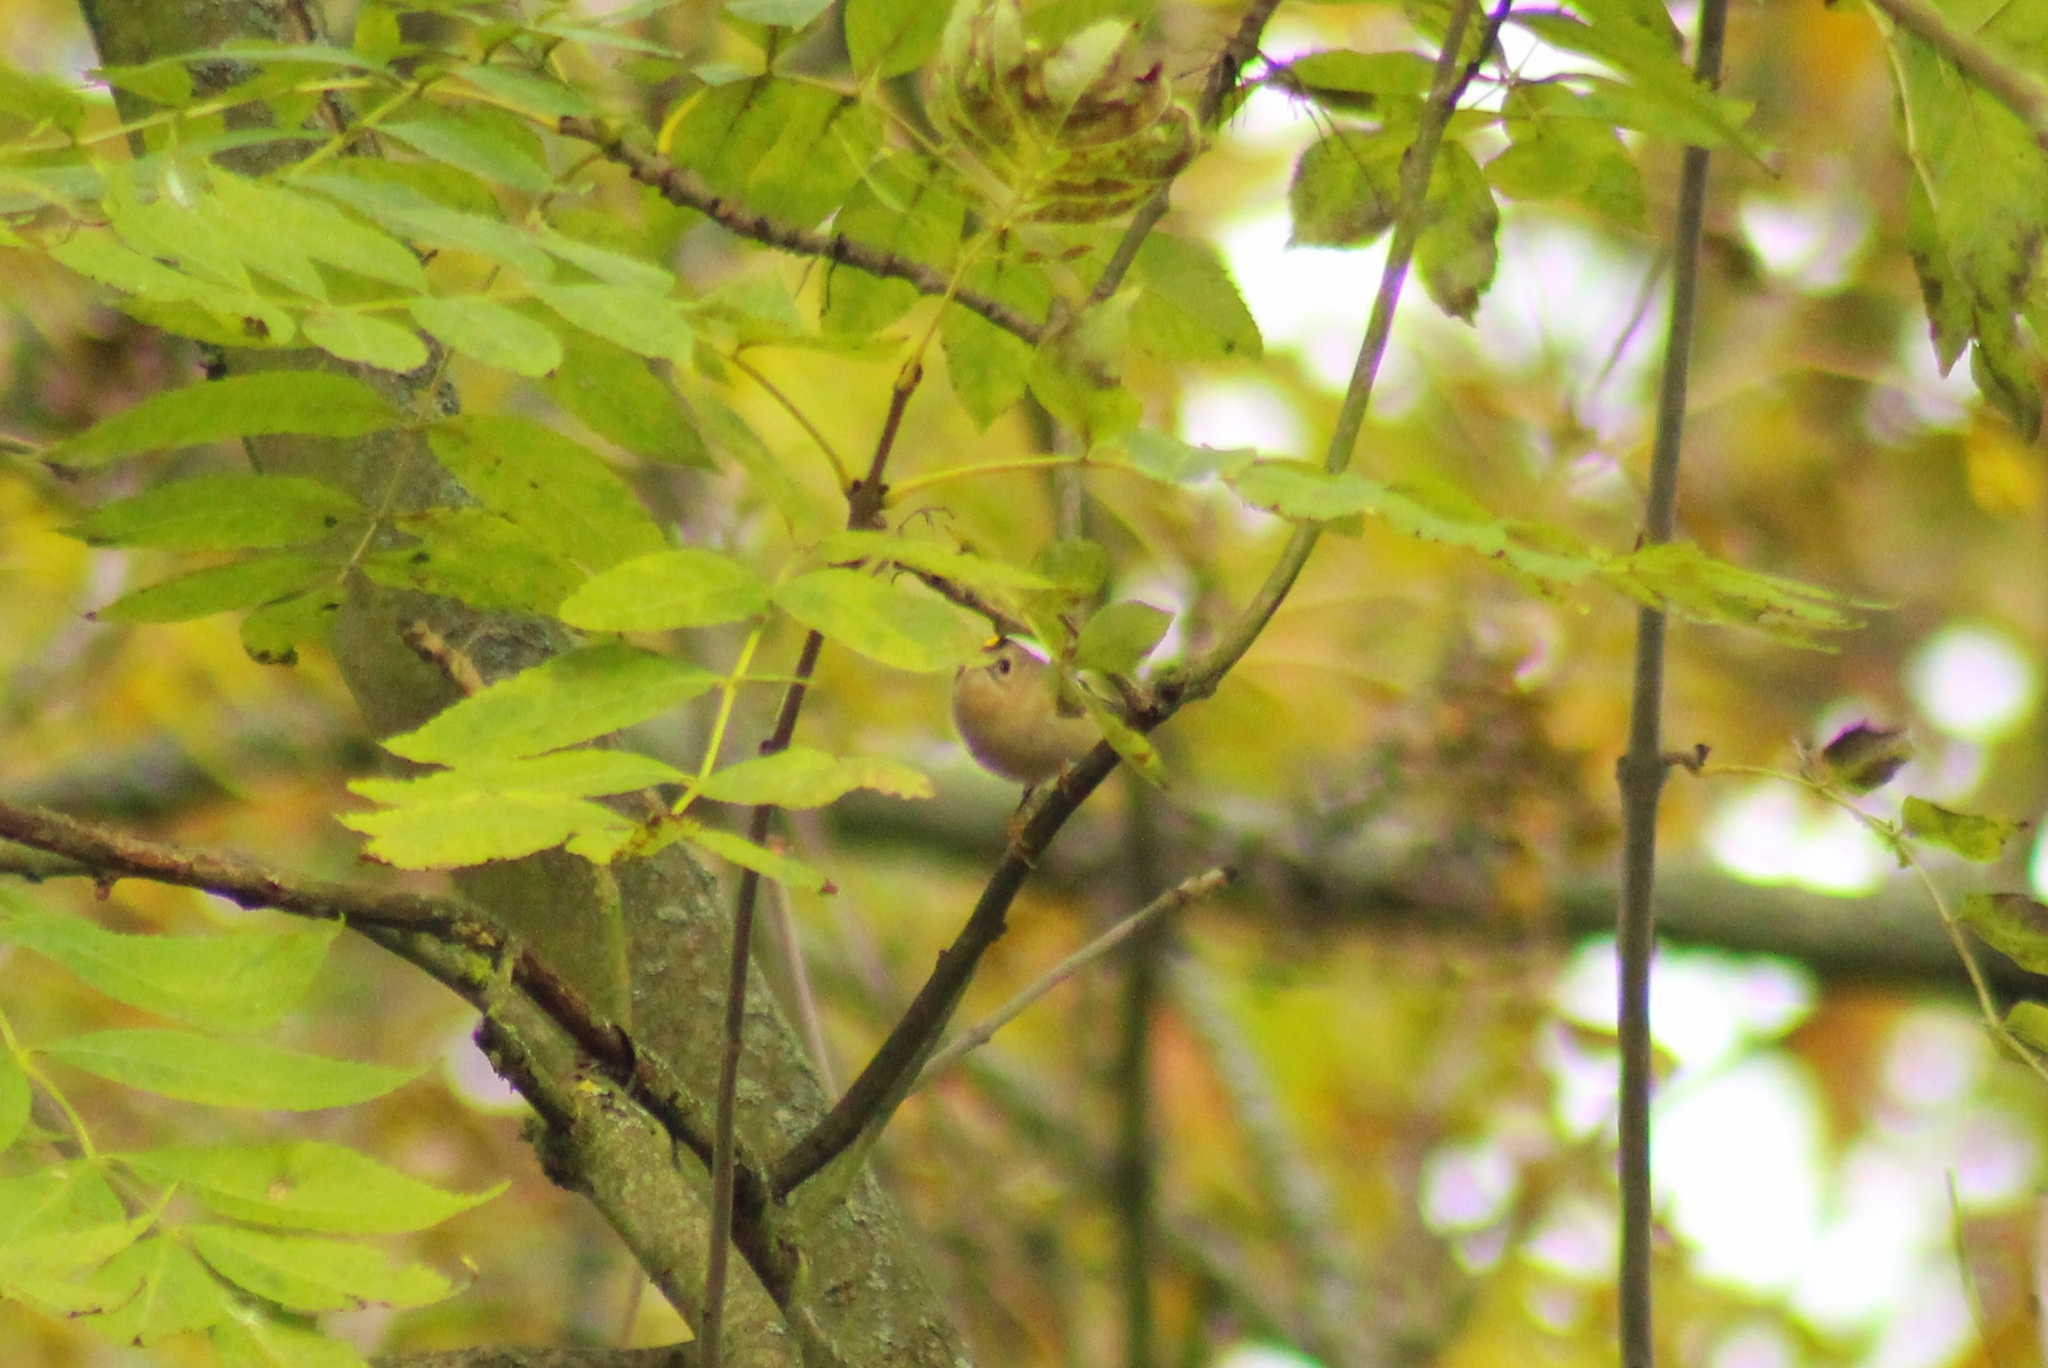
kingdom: Animalia
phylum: Chordata
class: Aves
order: Passeriformes
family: Regulidae
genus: Regulus
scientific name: Regulus regulus
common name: Goldcrest
